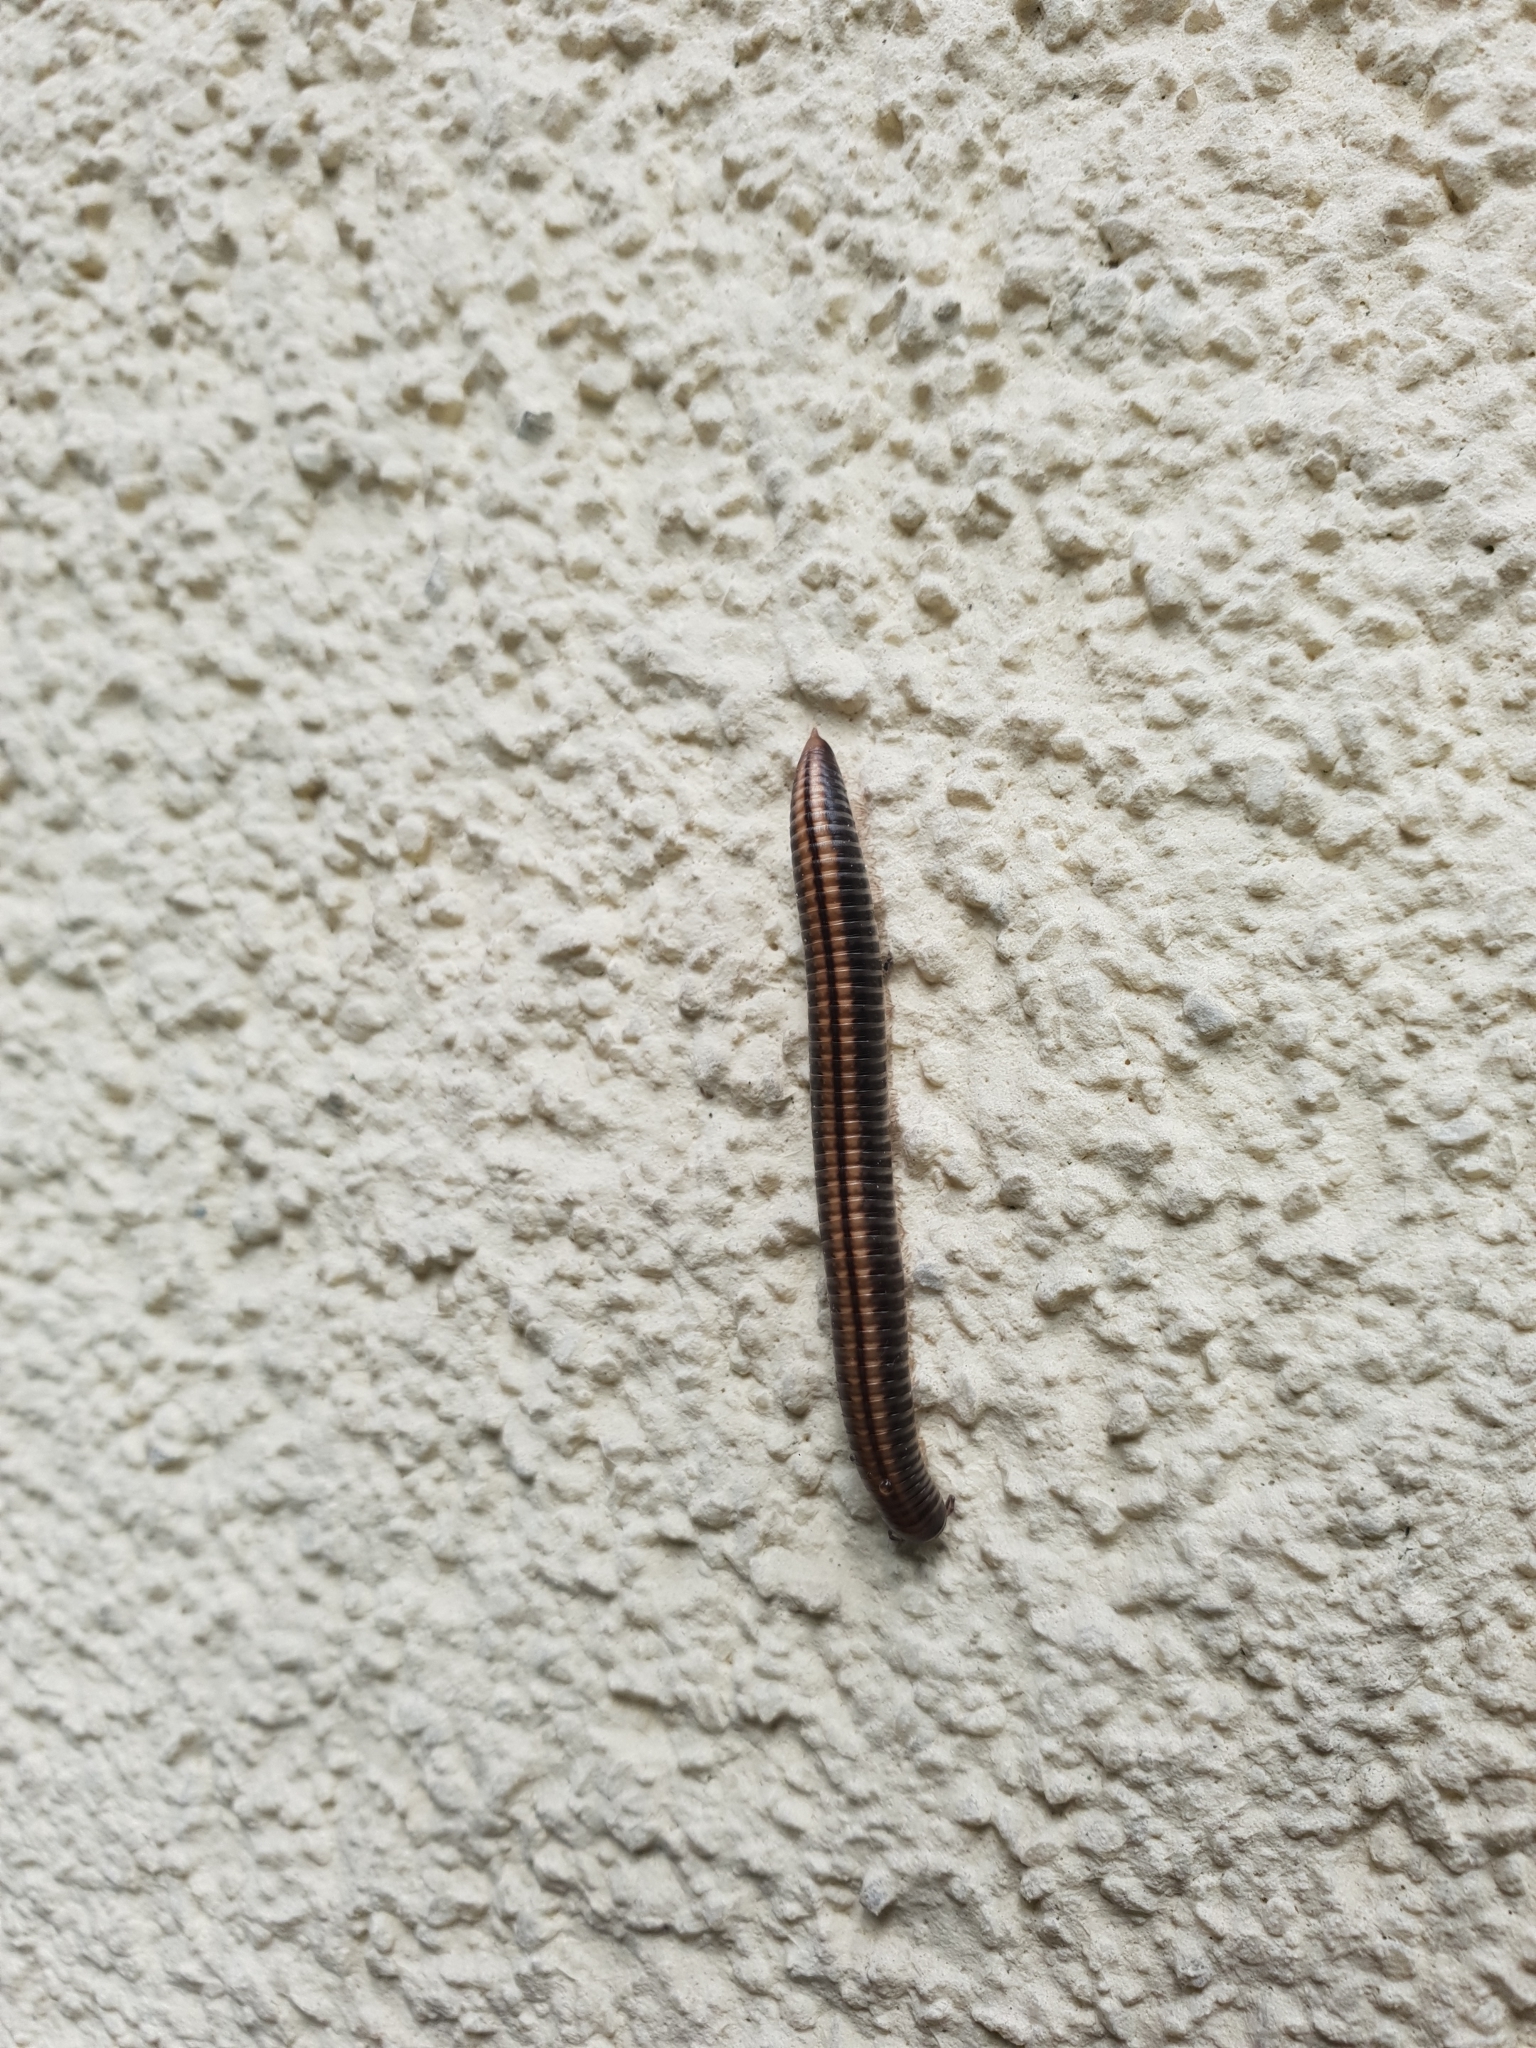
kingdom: Animalia
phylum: Arthropoda
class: Diplopoda
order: Julida
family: Julidae
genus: Ommatoiulus
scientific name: Ommatoiulus sabulosus
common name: Striped millipede
